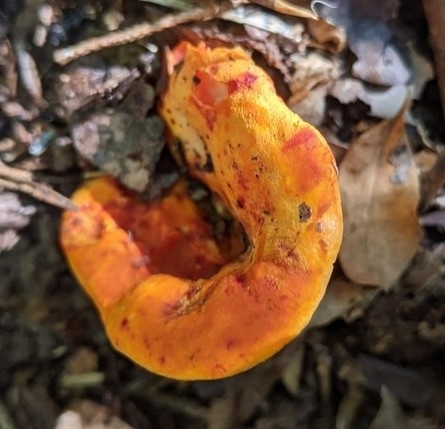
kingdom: Fungi
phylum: Ascomycota
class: Sordariomycetes
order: Hypocreales
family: Hypocreaceae
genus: Hypomyces
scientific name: Hypomyces lactifluorum
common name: Lobster mushroom
